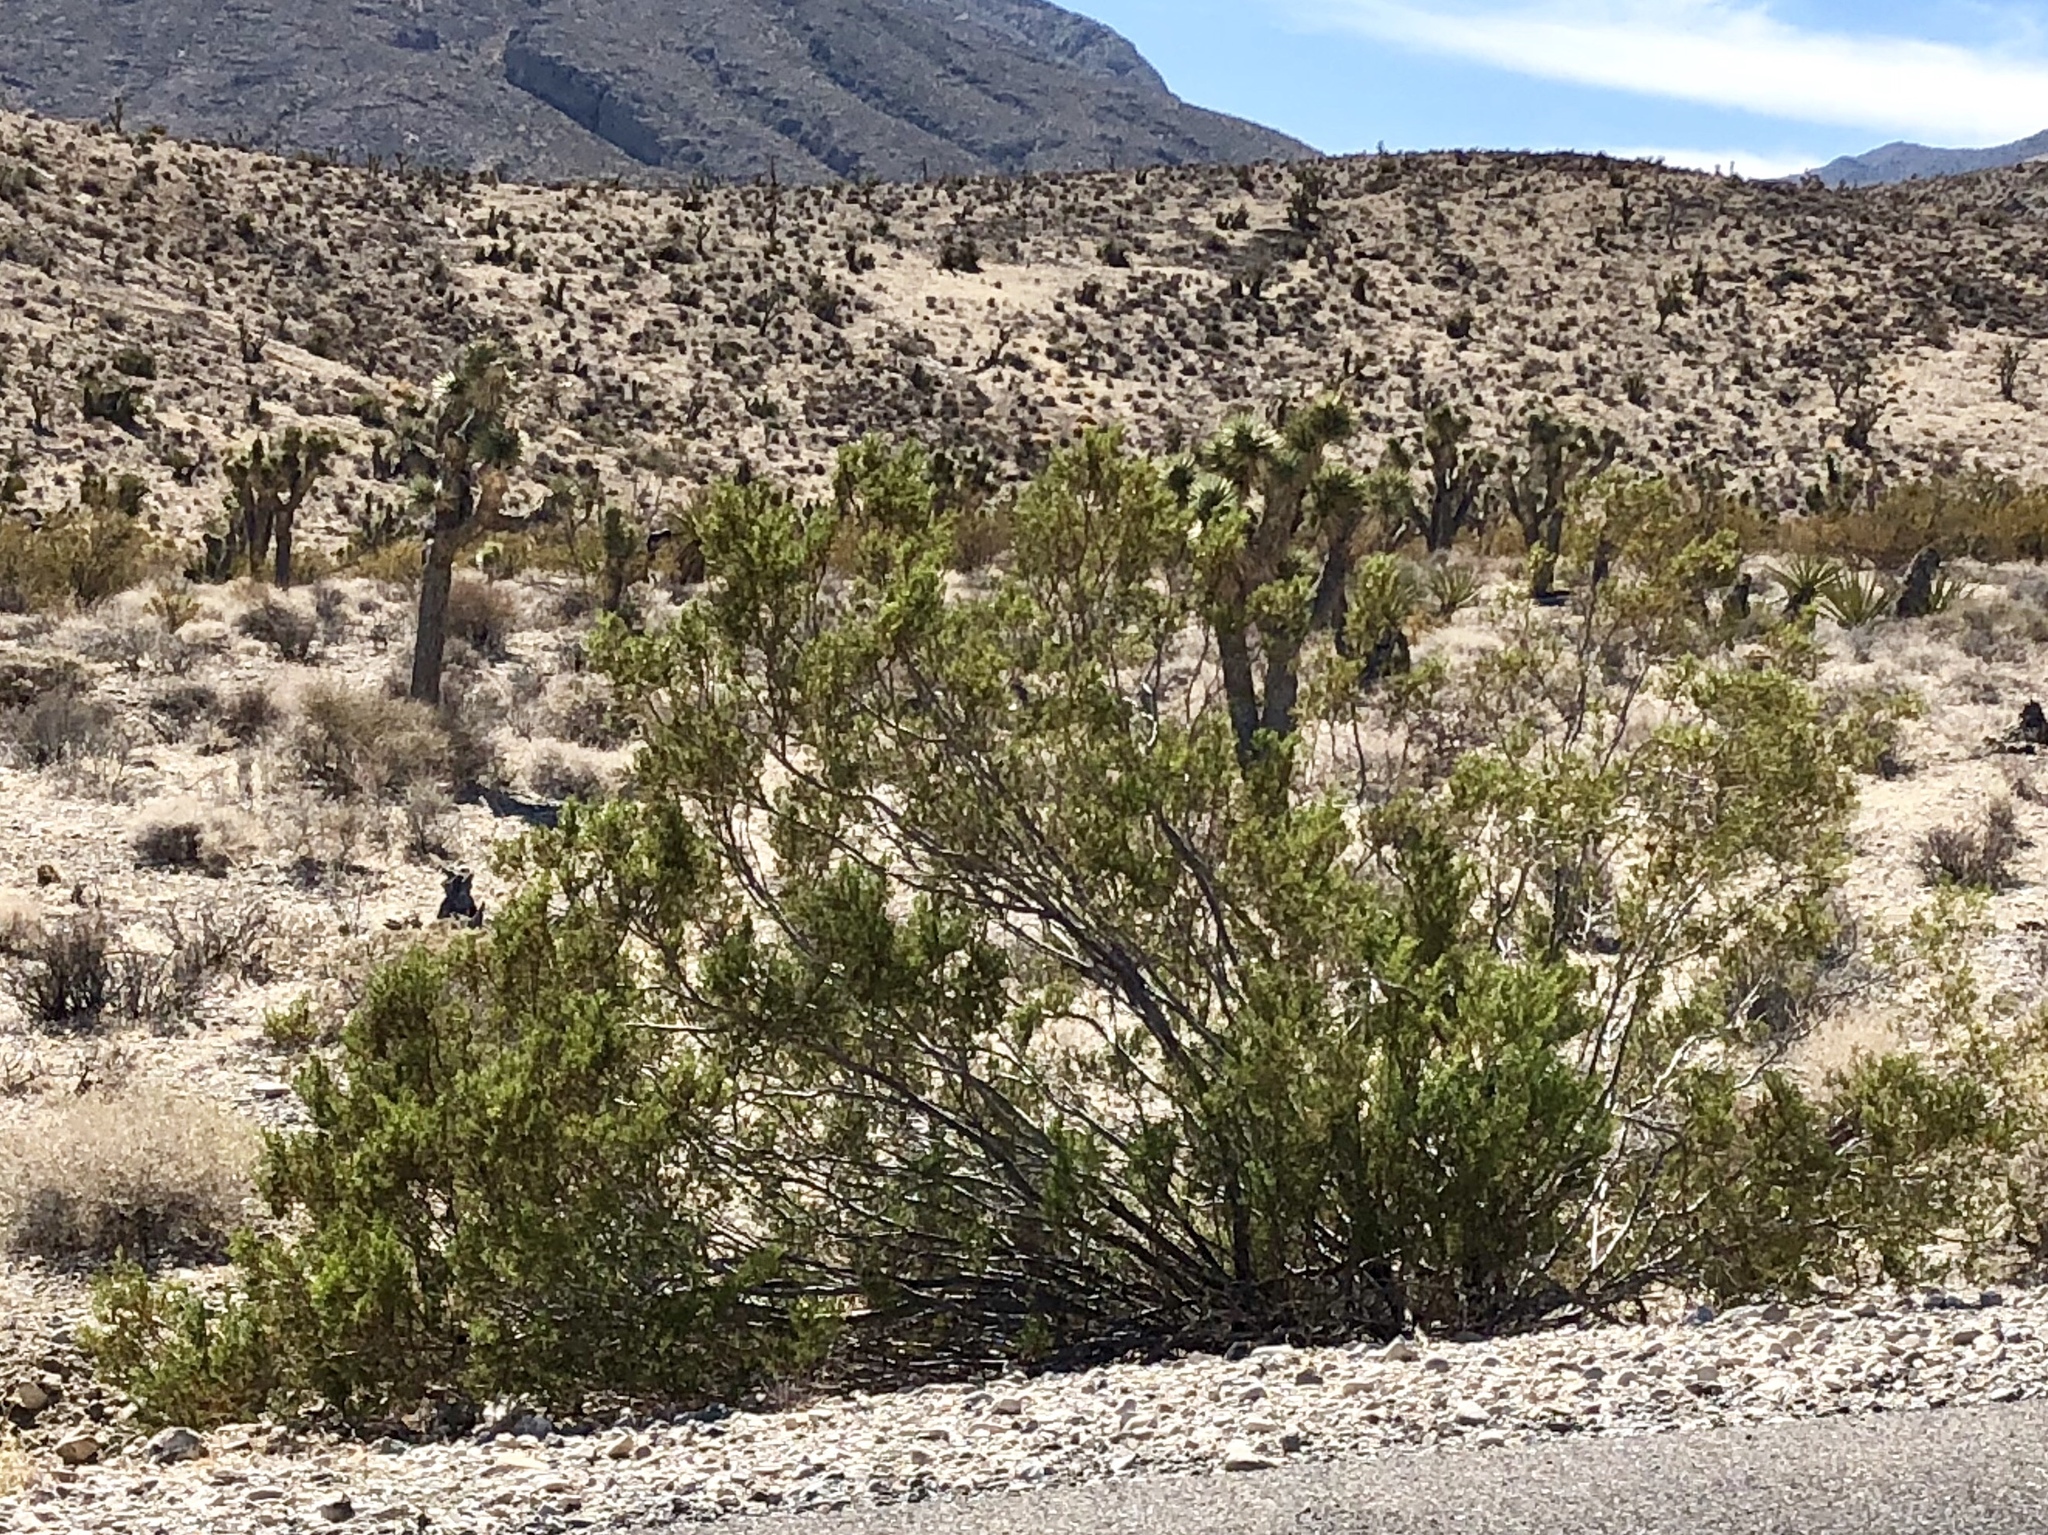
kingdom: Plantae
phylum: Tracheophyta
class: Magnoliopsida
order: Zygophyllales
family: Zygophyllaceae
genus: Larrea
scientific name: Larrea tridentata
